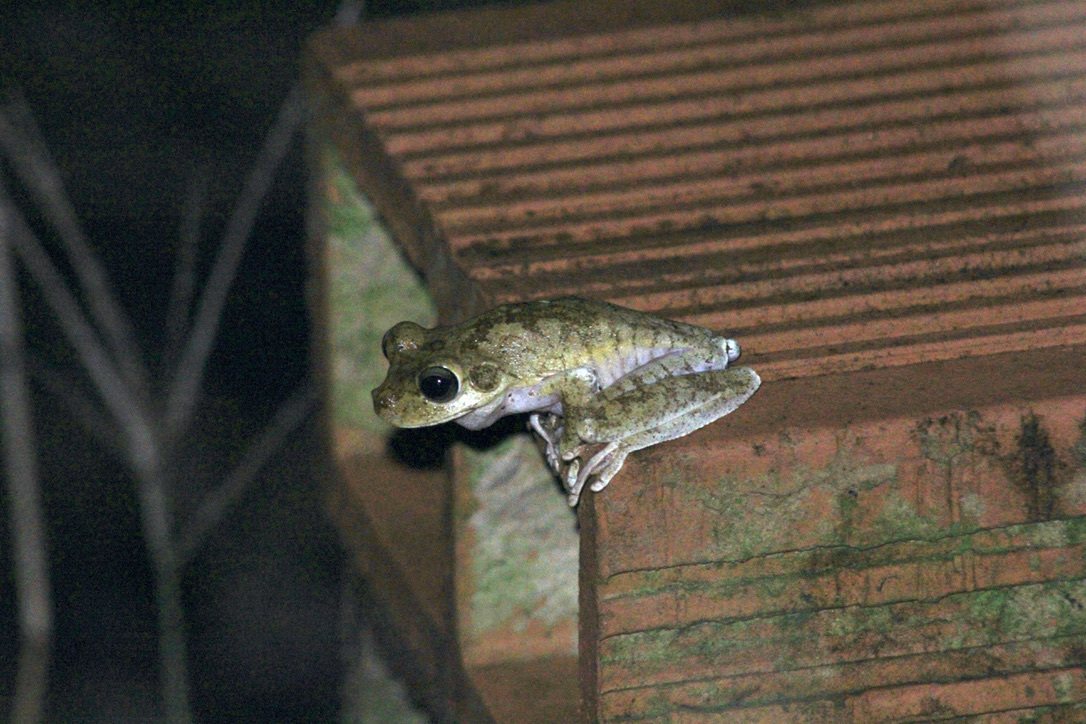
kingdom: Animalia
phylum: Chordata
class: Amphibia
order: Anura
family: Hylidae
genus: Boana
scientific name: Boana platanera
